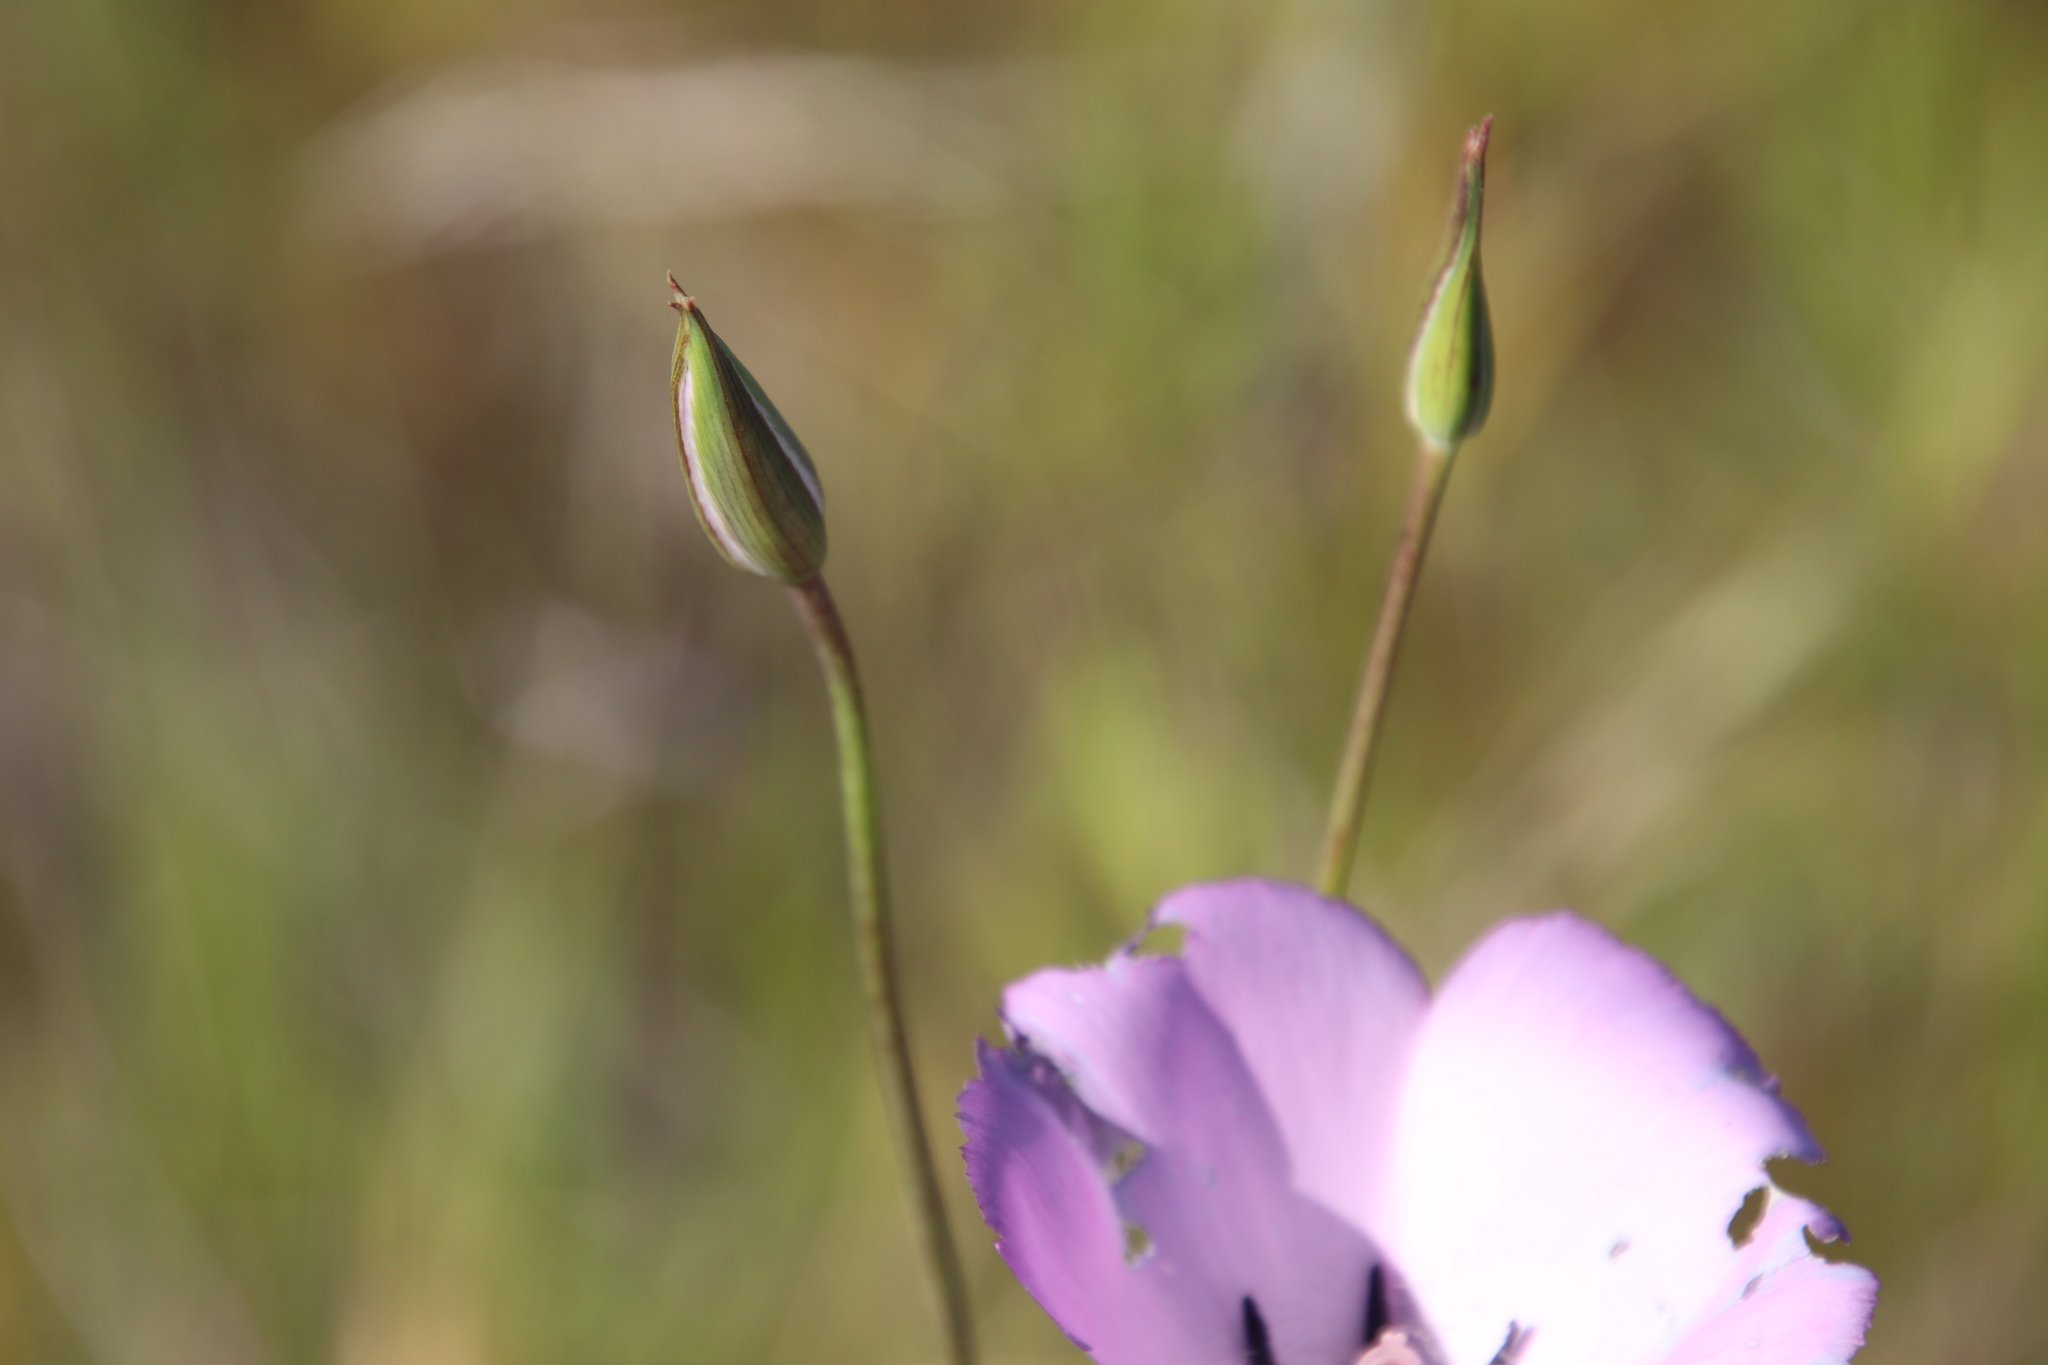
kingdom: Plantae
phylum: Tracheophyta
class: Liliopsida
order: Liliales
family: Liliaceae
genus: Calochortus
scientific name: Calochortus splendens
